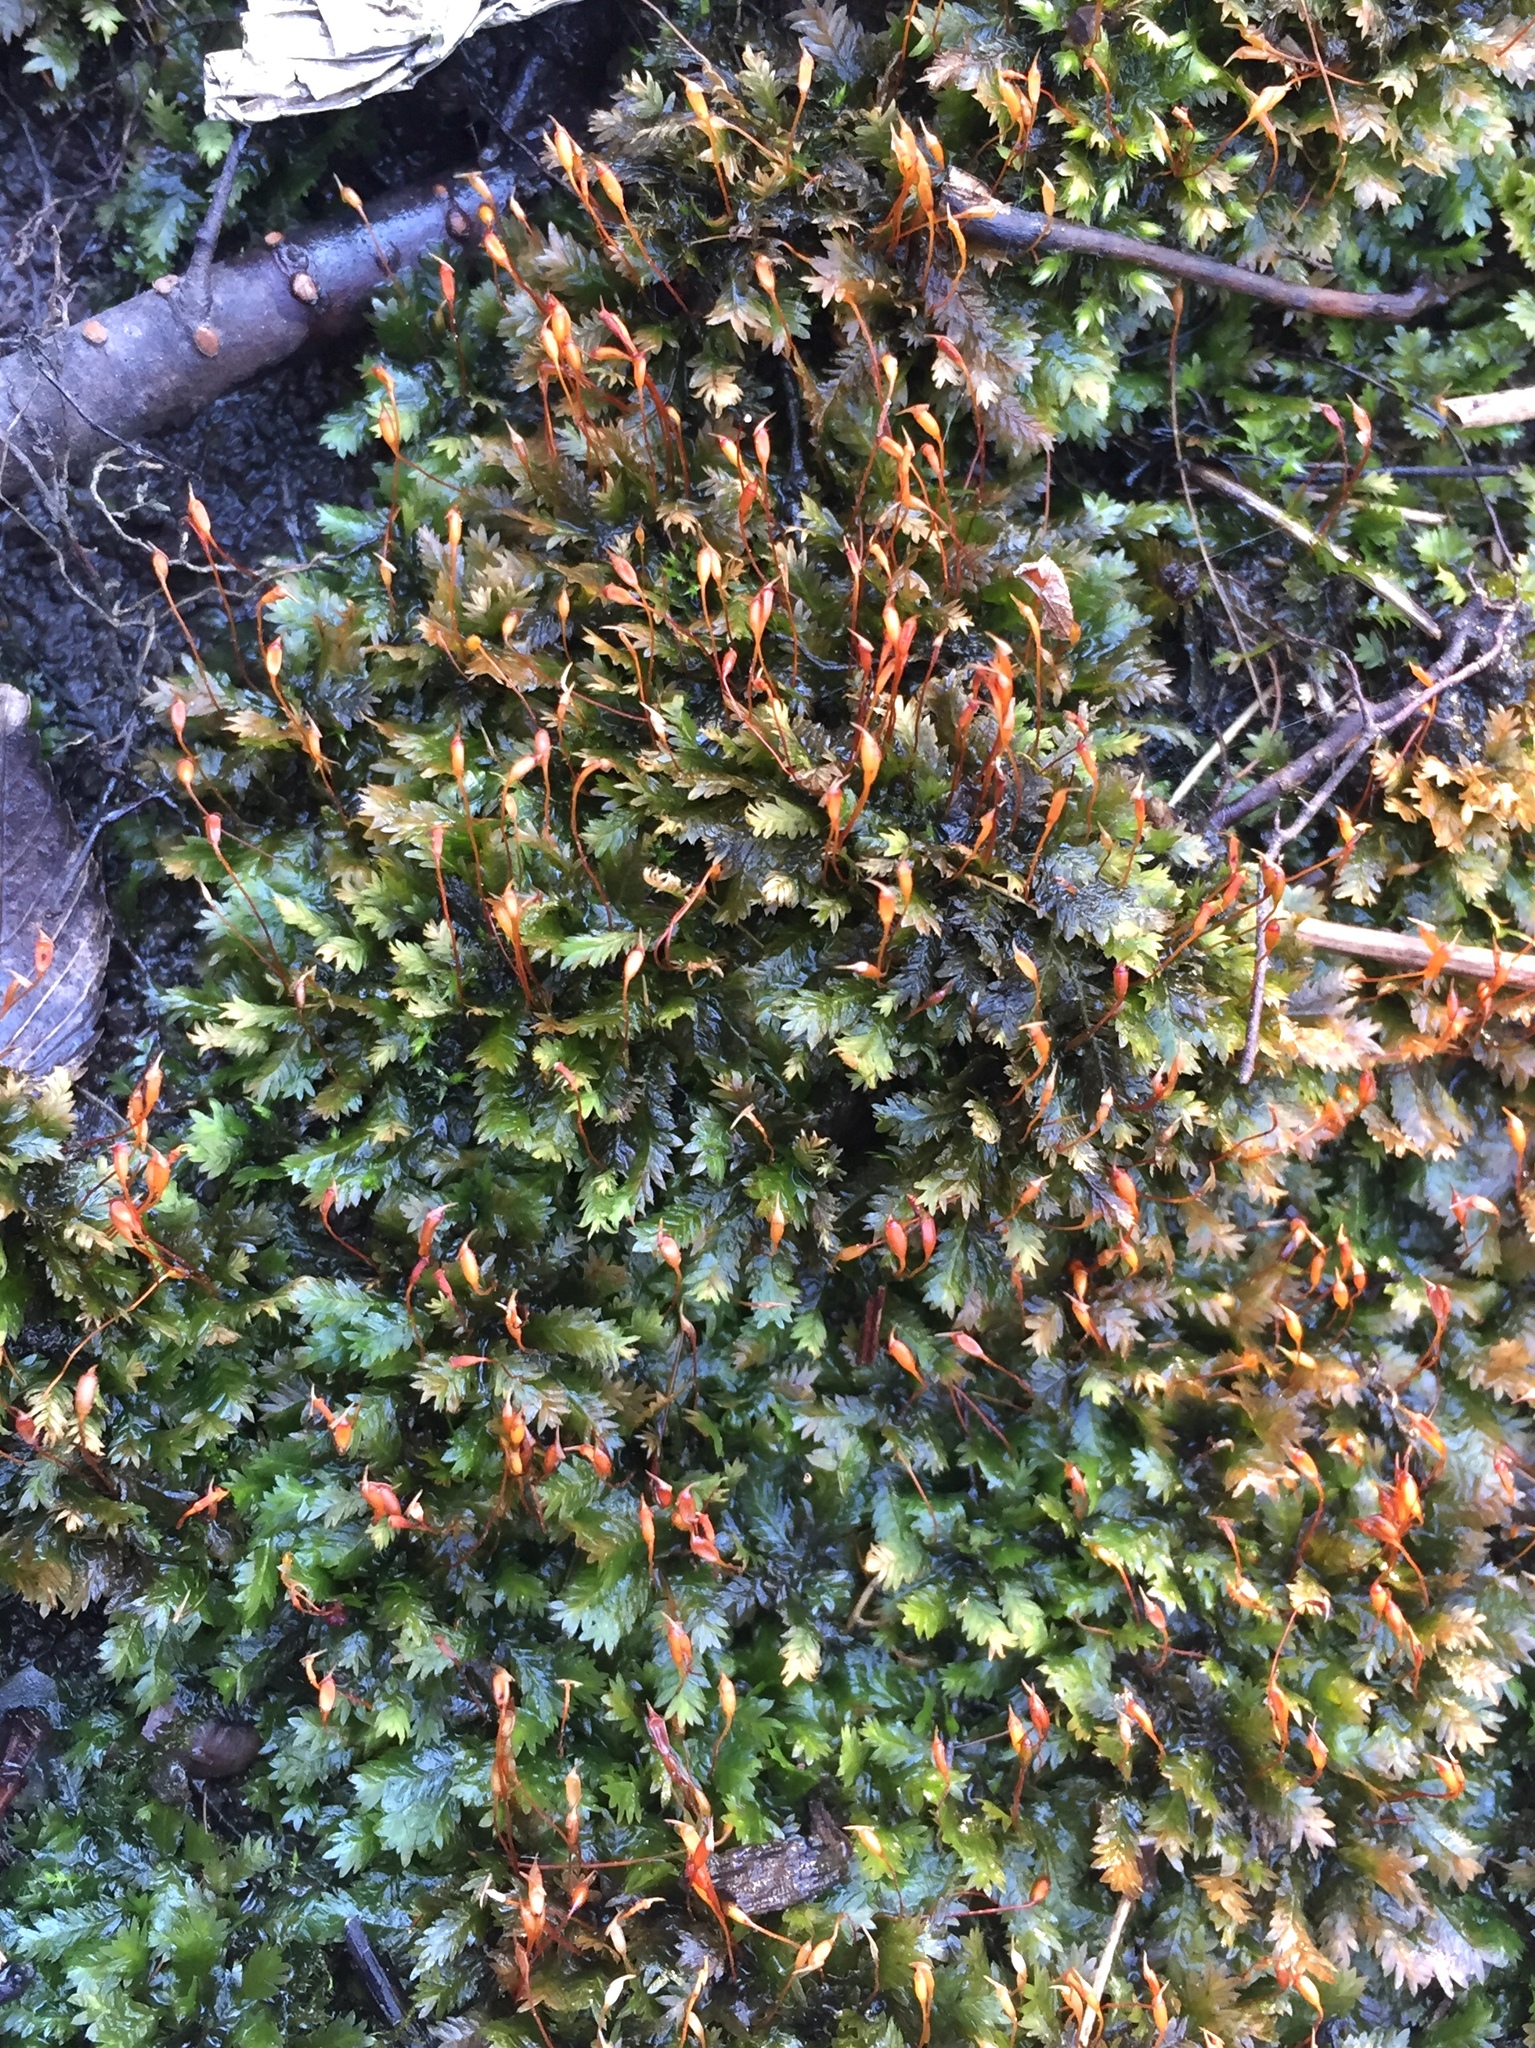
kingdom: Plantae
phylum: Bryophyta
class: Bryopsida
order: Dicranales
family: Fissidentaceae
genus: Fissidens
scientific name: Fissidens taxifolius
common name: Yew-leaved pocket moss
